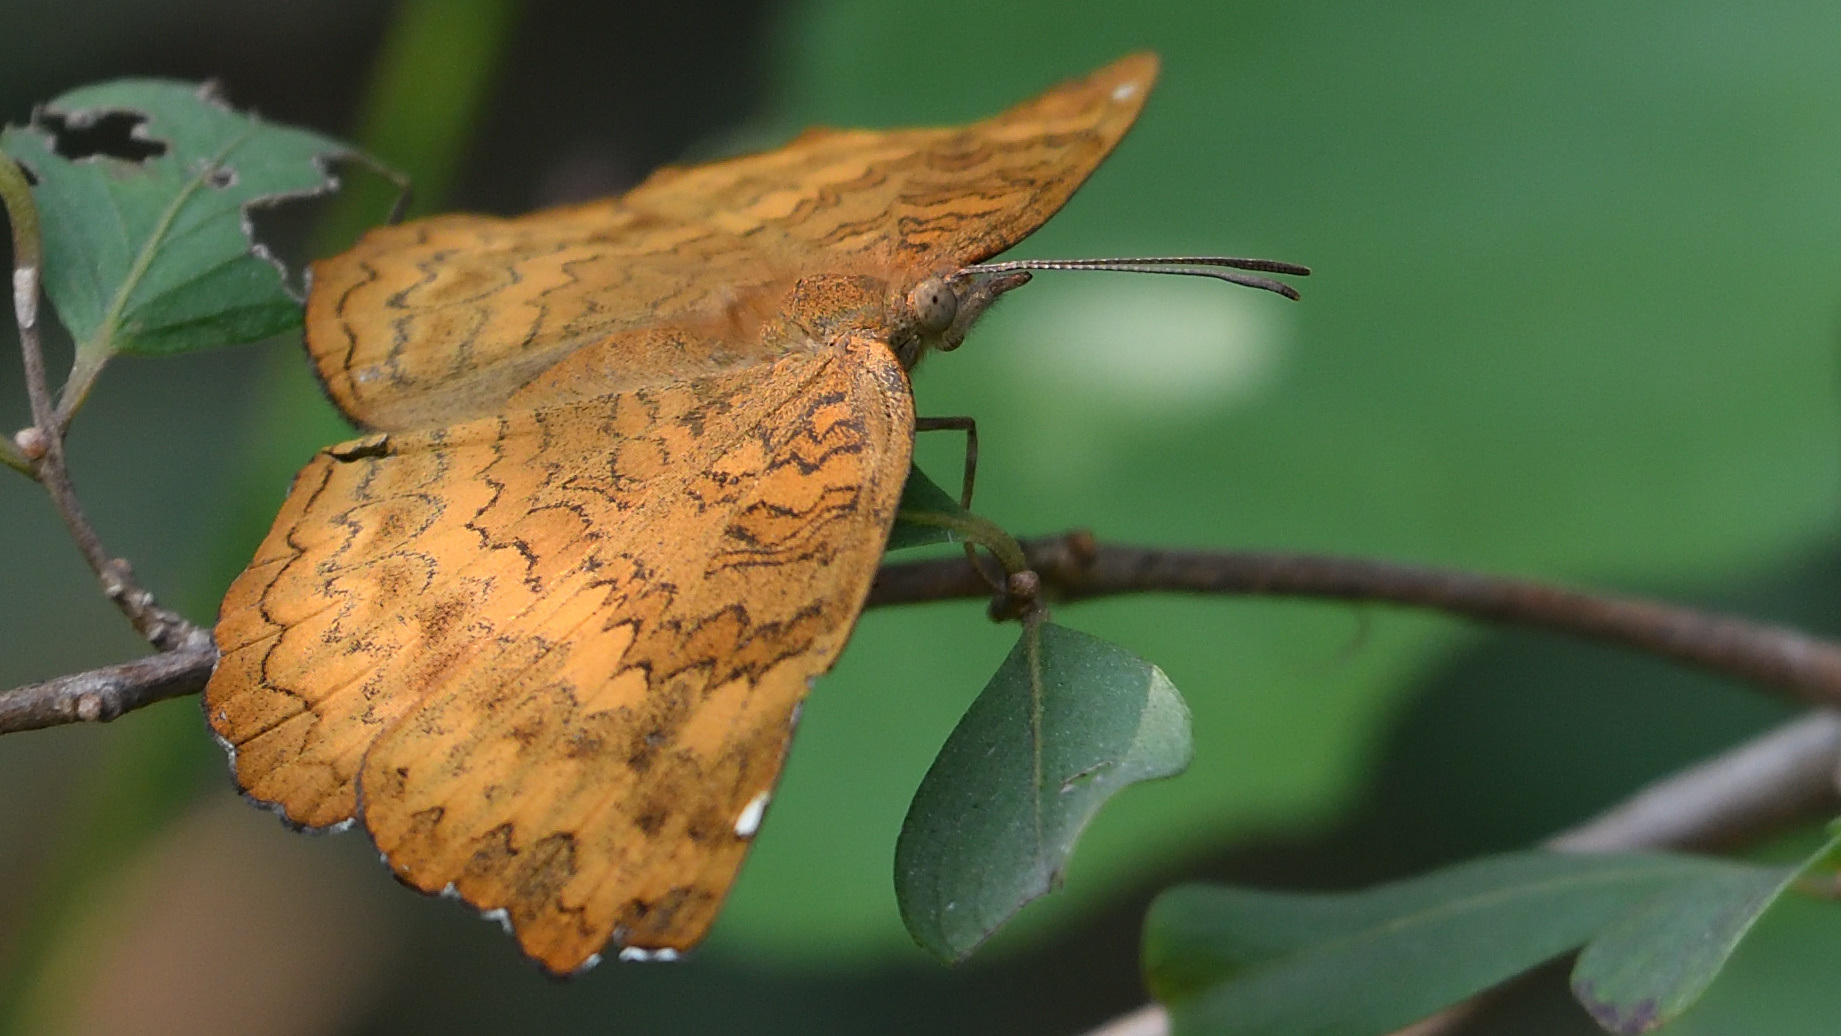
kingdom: Animalia
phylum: Arthropoda
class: Insecta
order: Lepidoptera
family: Nymphalidae
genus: Ariadne
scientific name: Ariadne merione
